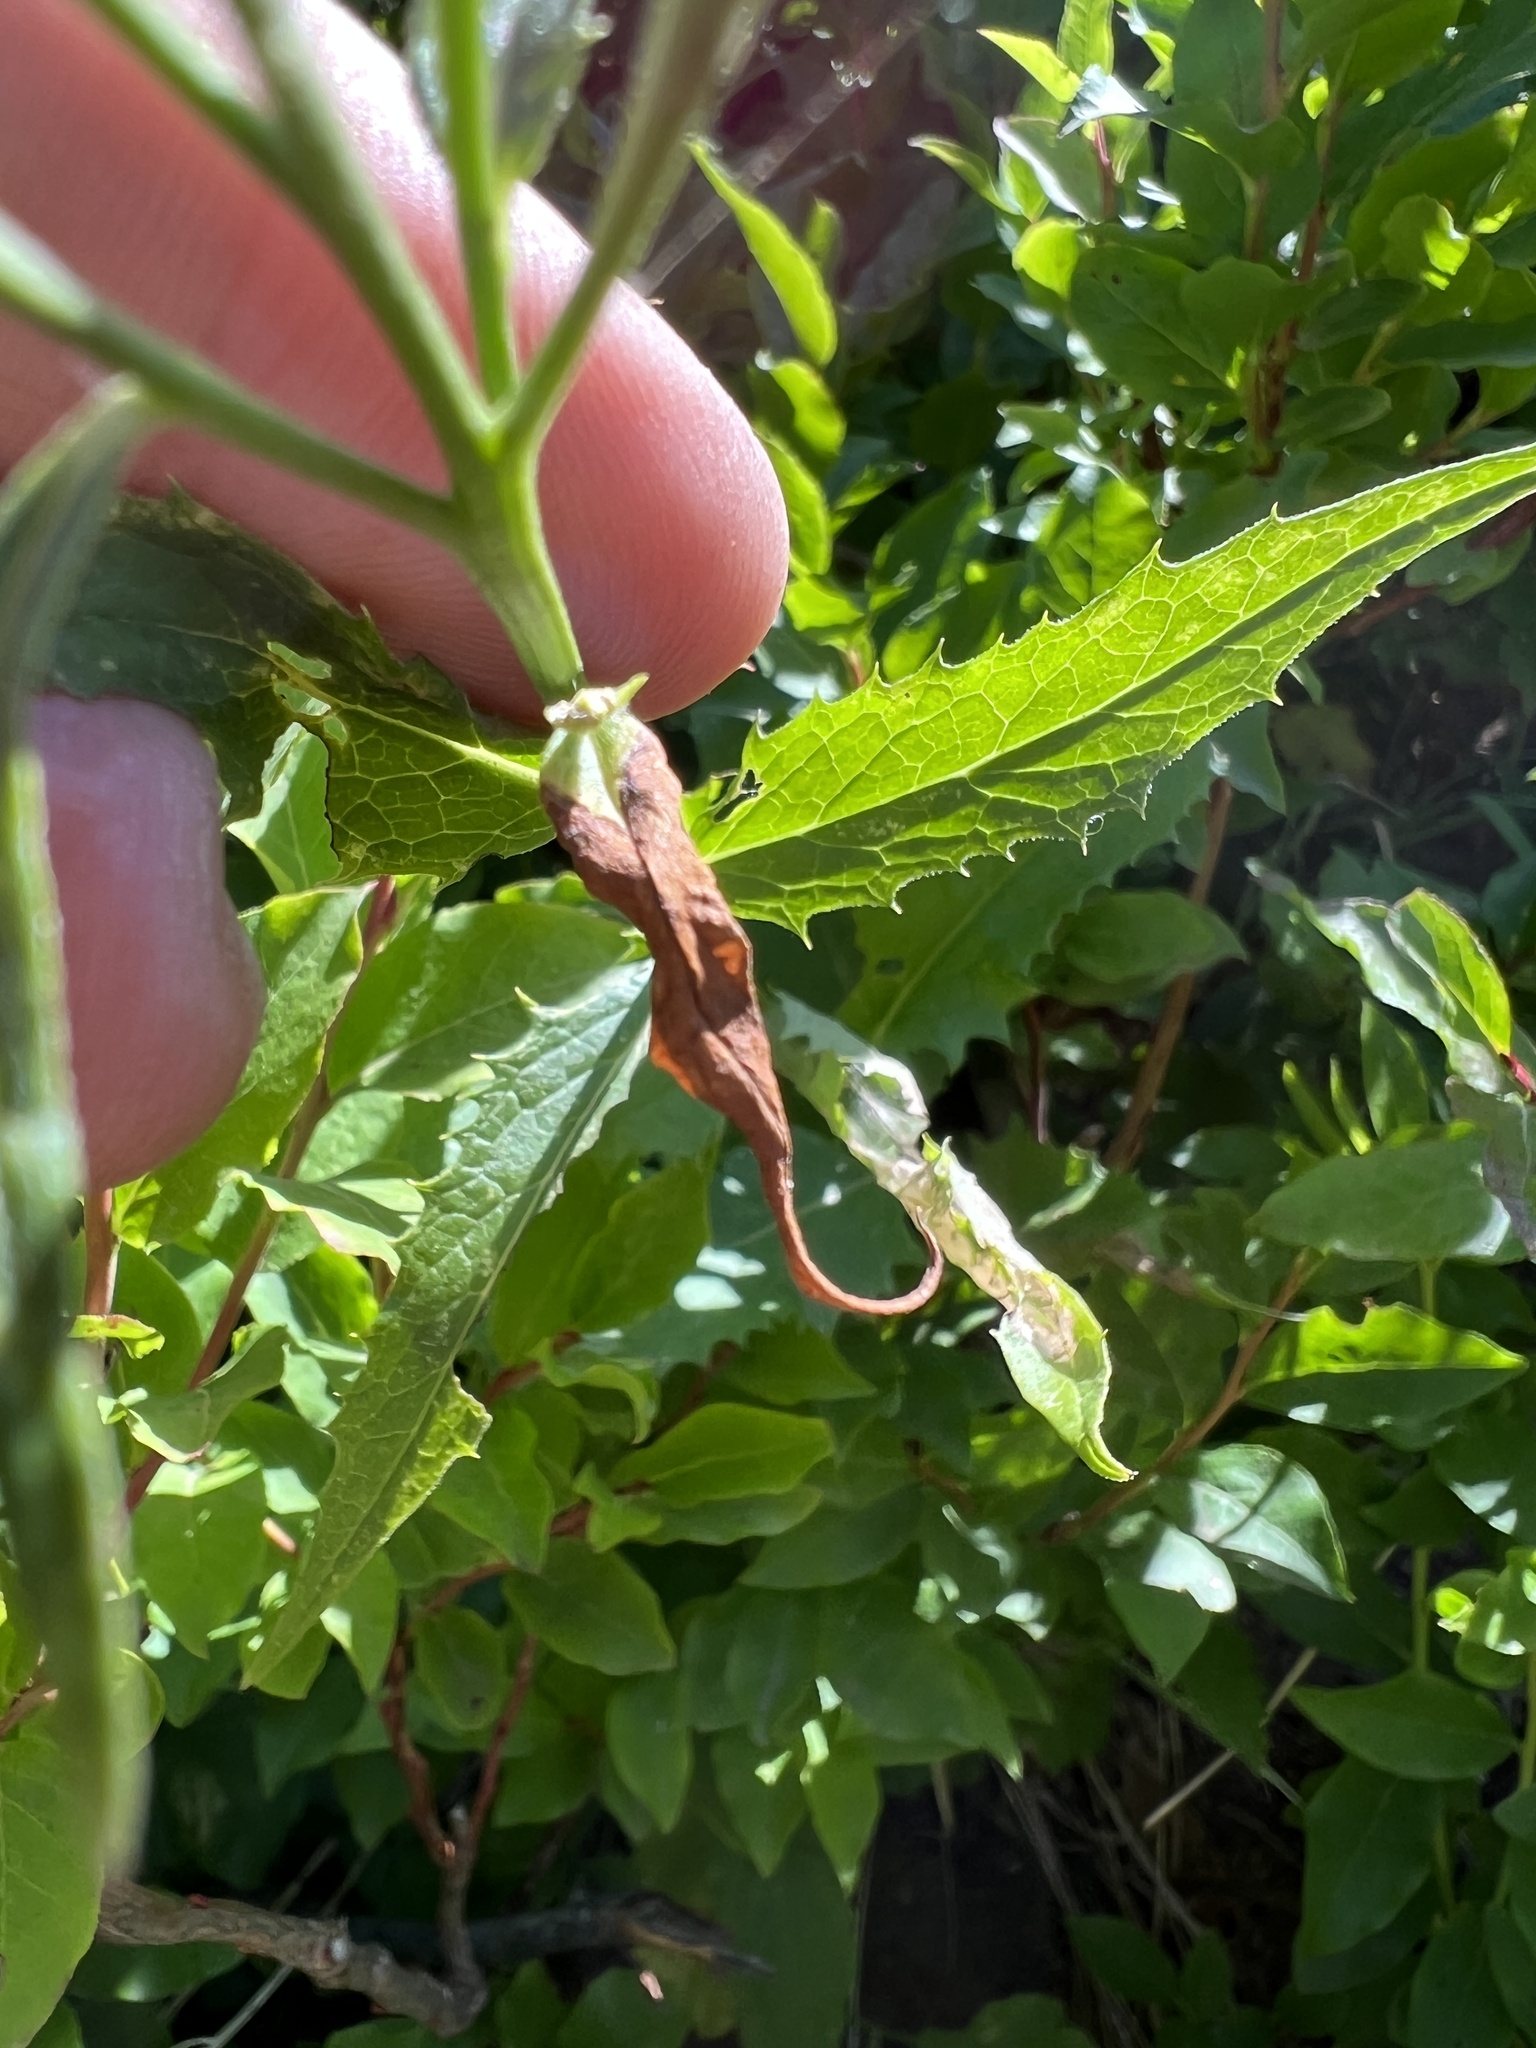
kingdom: Plantae
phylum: Tracheophyta
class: Magnoliopsida
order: Asterales
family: Asteraceae
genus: Saussurea
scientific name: Saussurea americana
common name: American saw-wort
